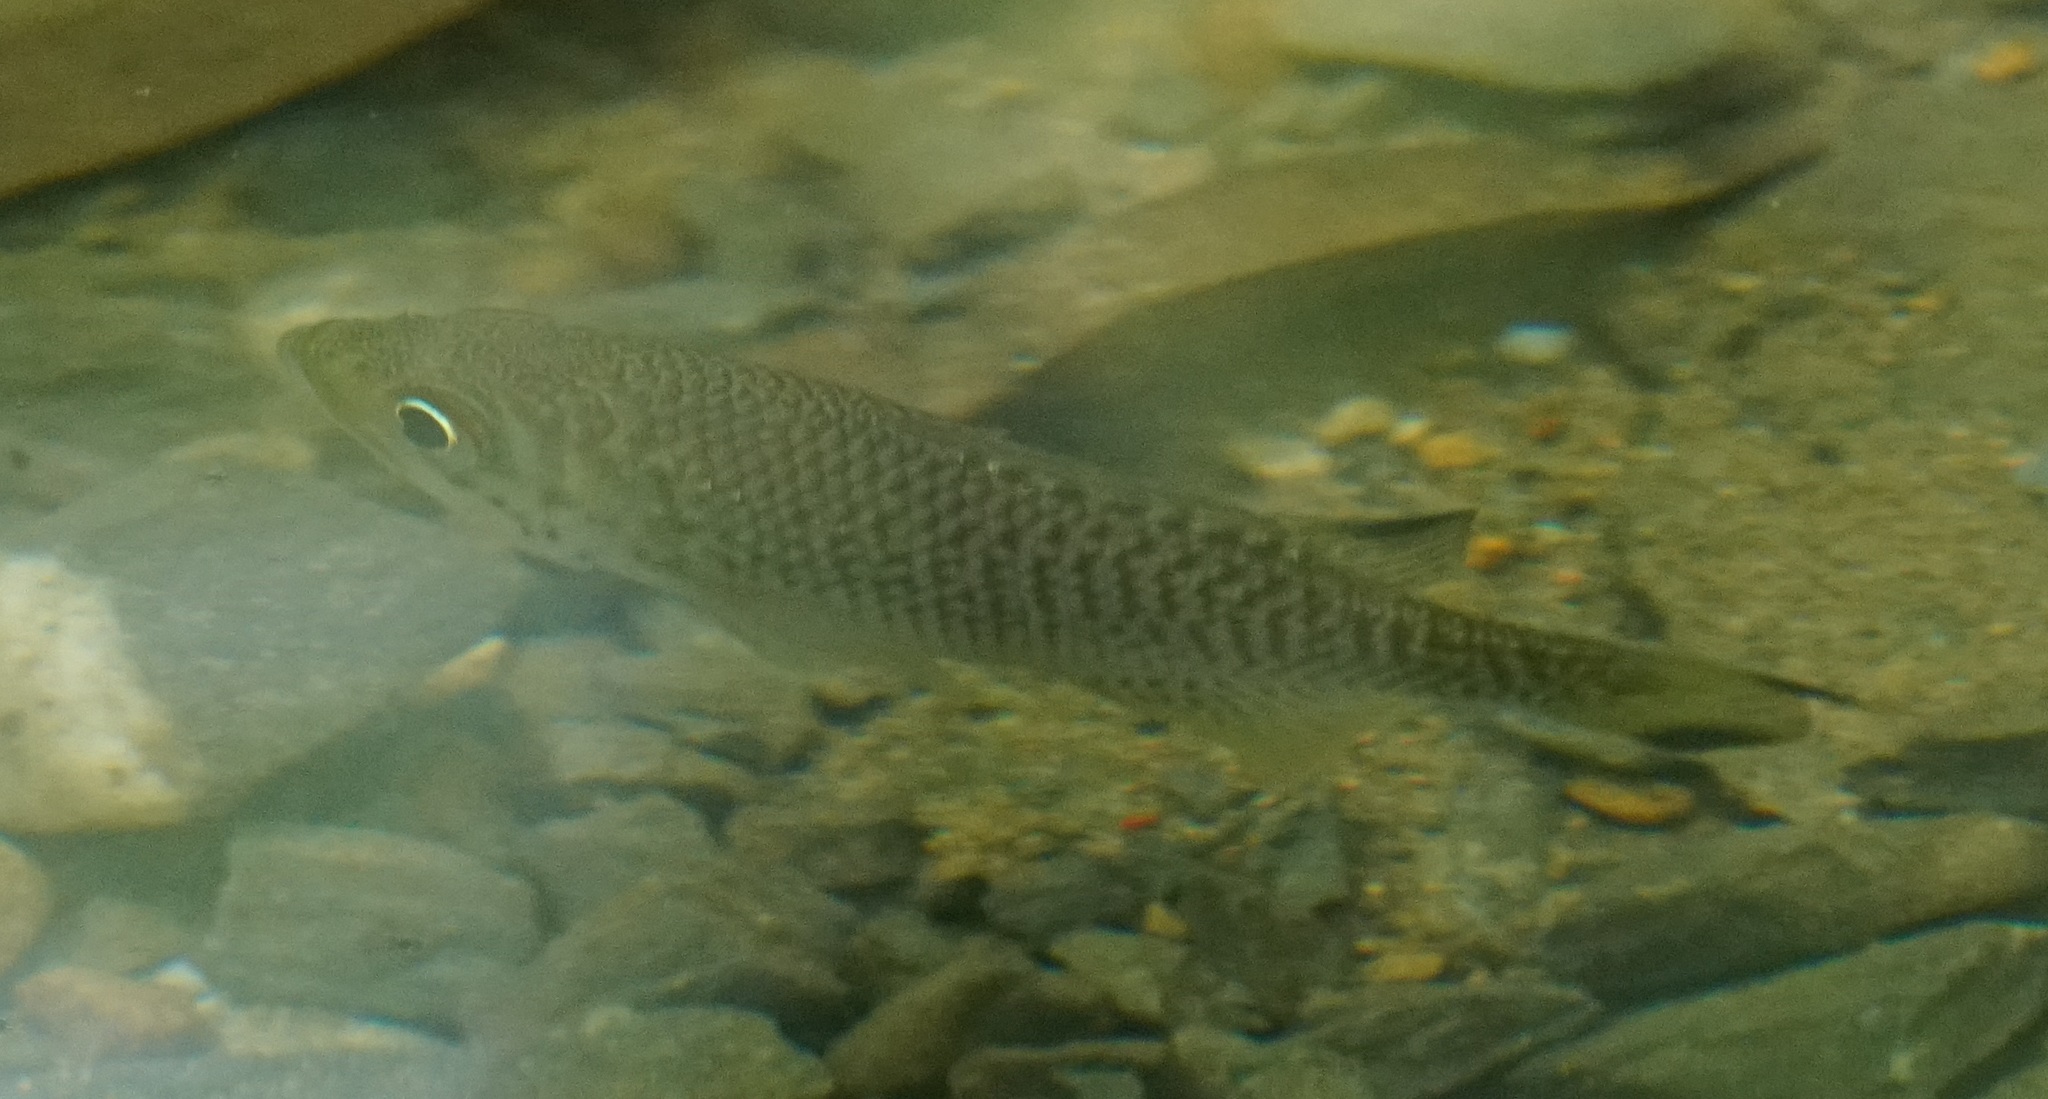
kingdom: Animalia
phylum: Chordata
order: Perciformes
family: Kuhliidae
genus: Kuhlia
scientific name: Kuhlia rupestris
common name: Rock flagtail
